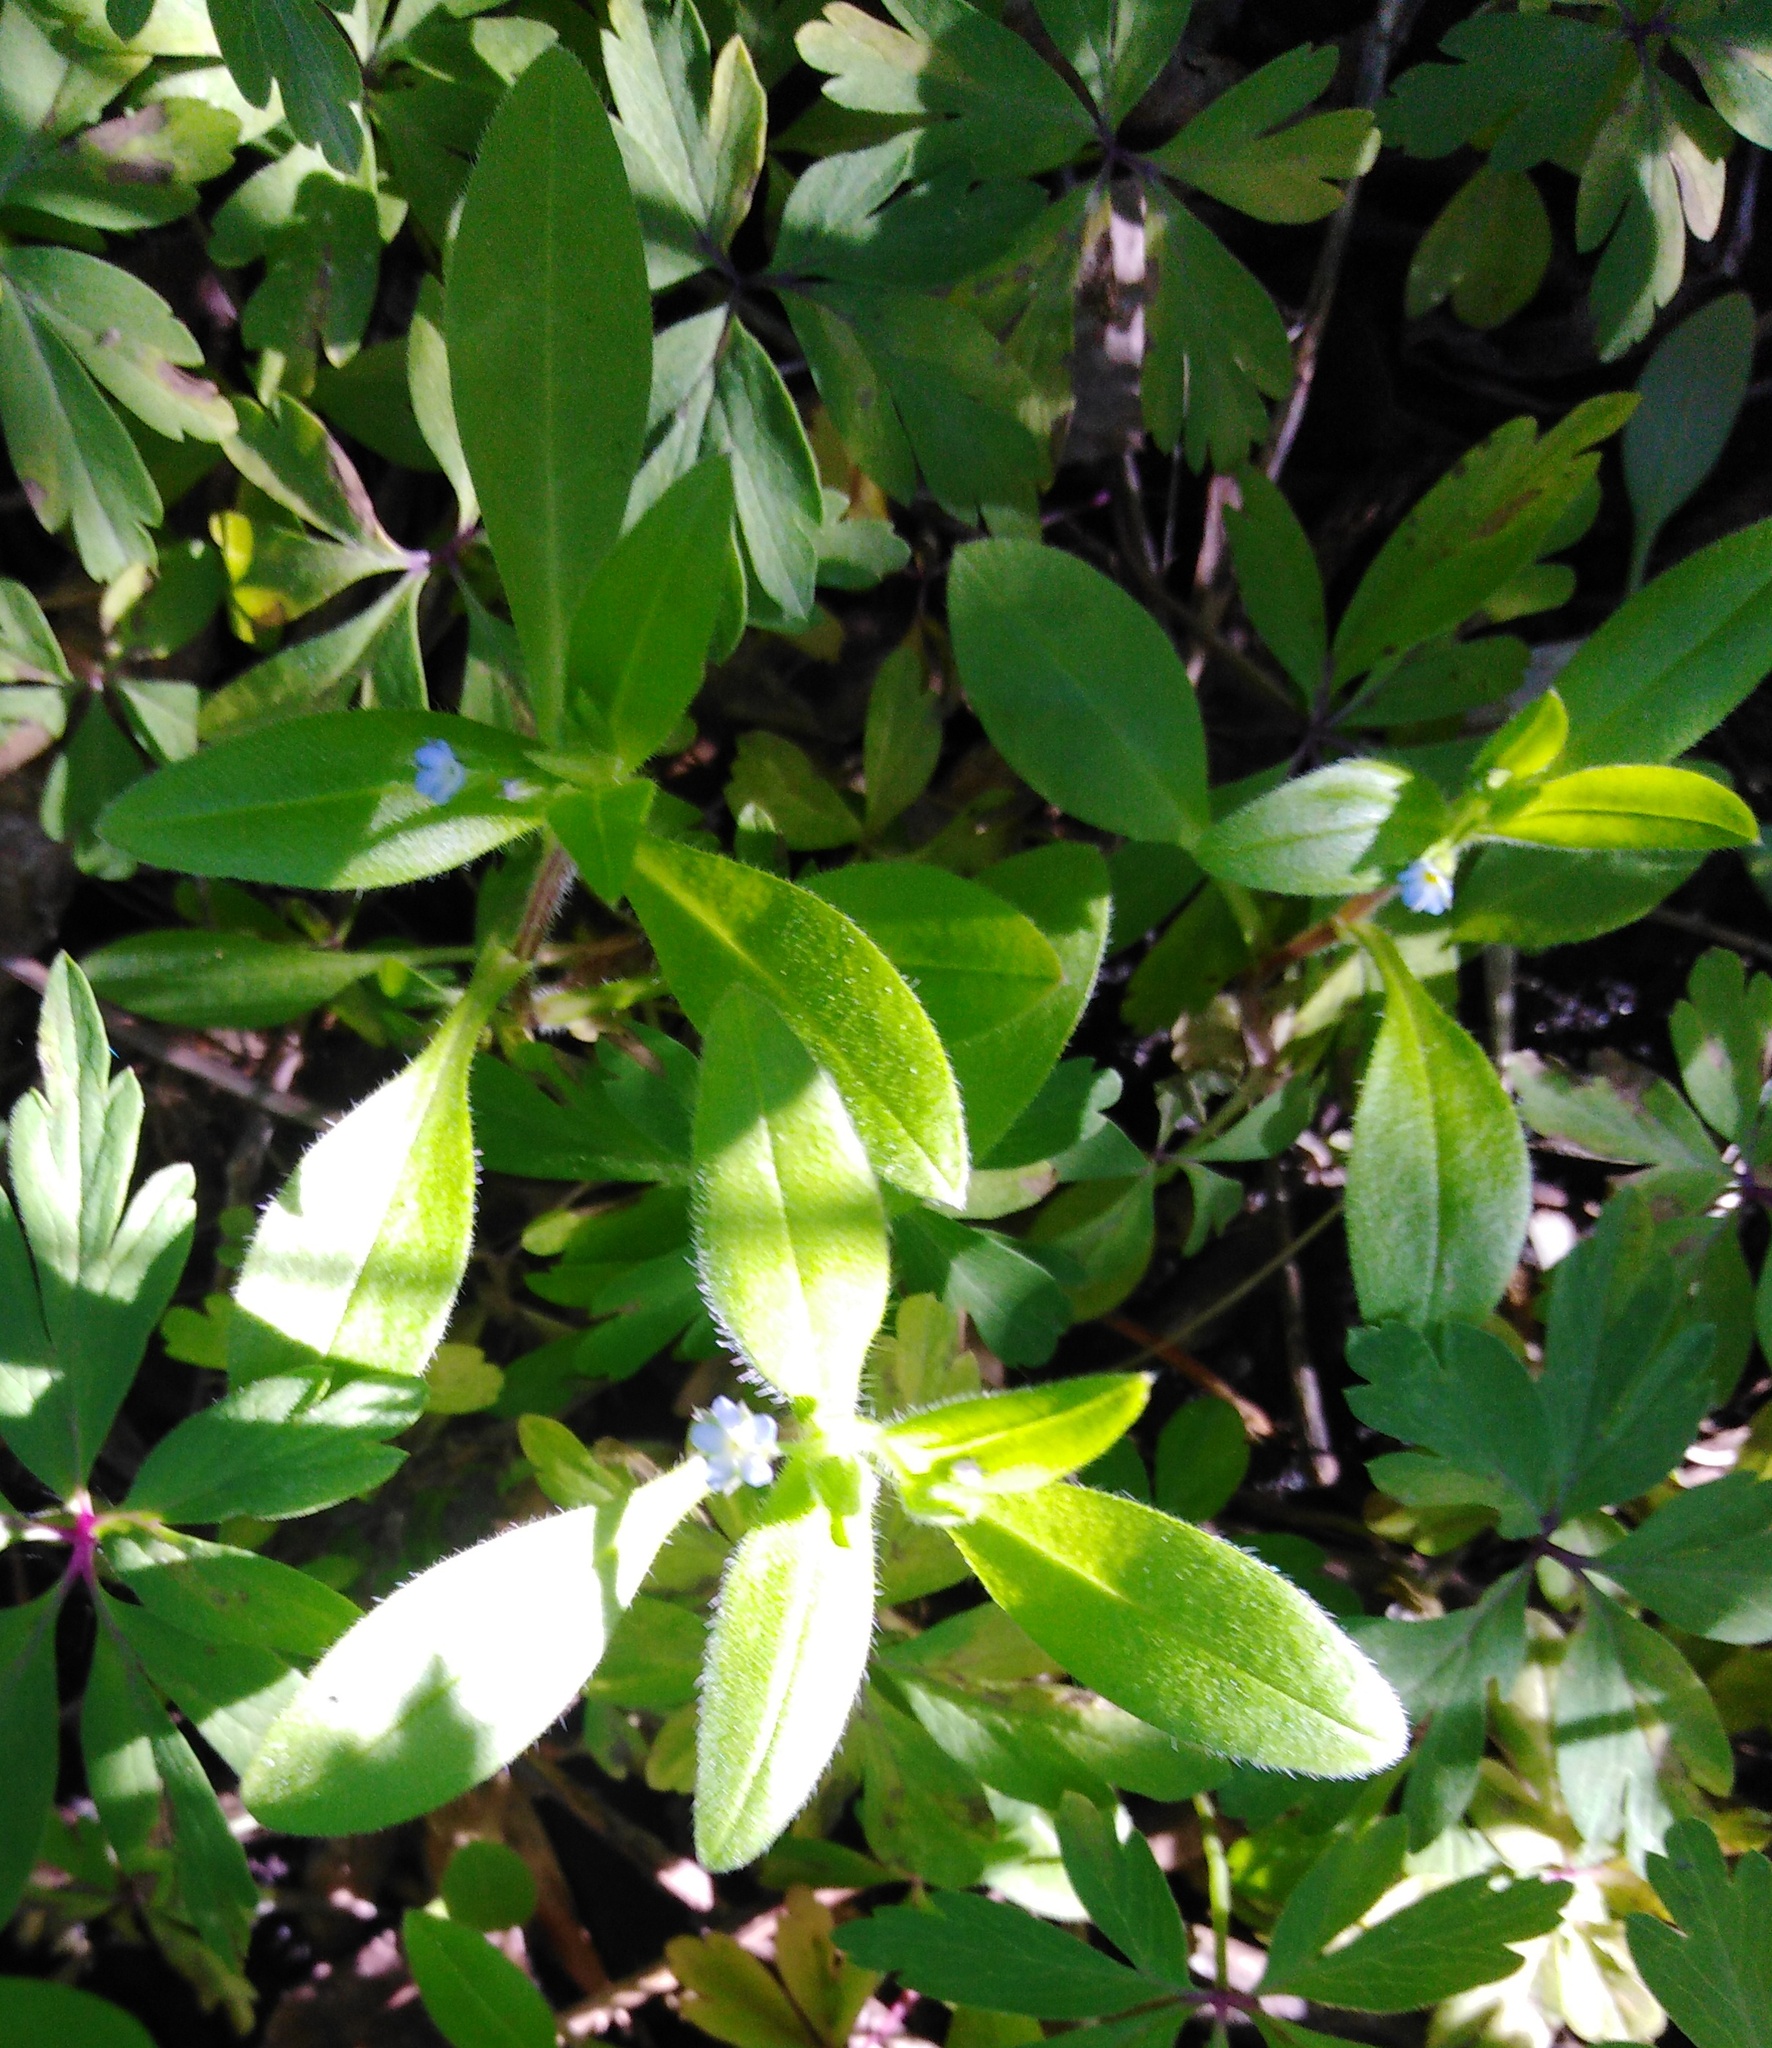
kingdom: Plantae
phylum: Tracheophyta
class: Magnoliopsida
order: Boraginales
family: Boraginaceae
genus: Myosotis
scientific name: Myosotis sparsiflora
